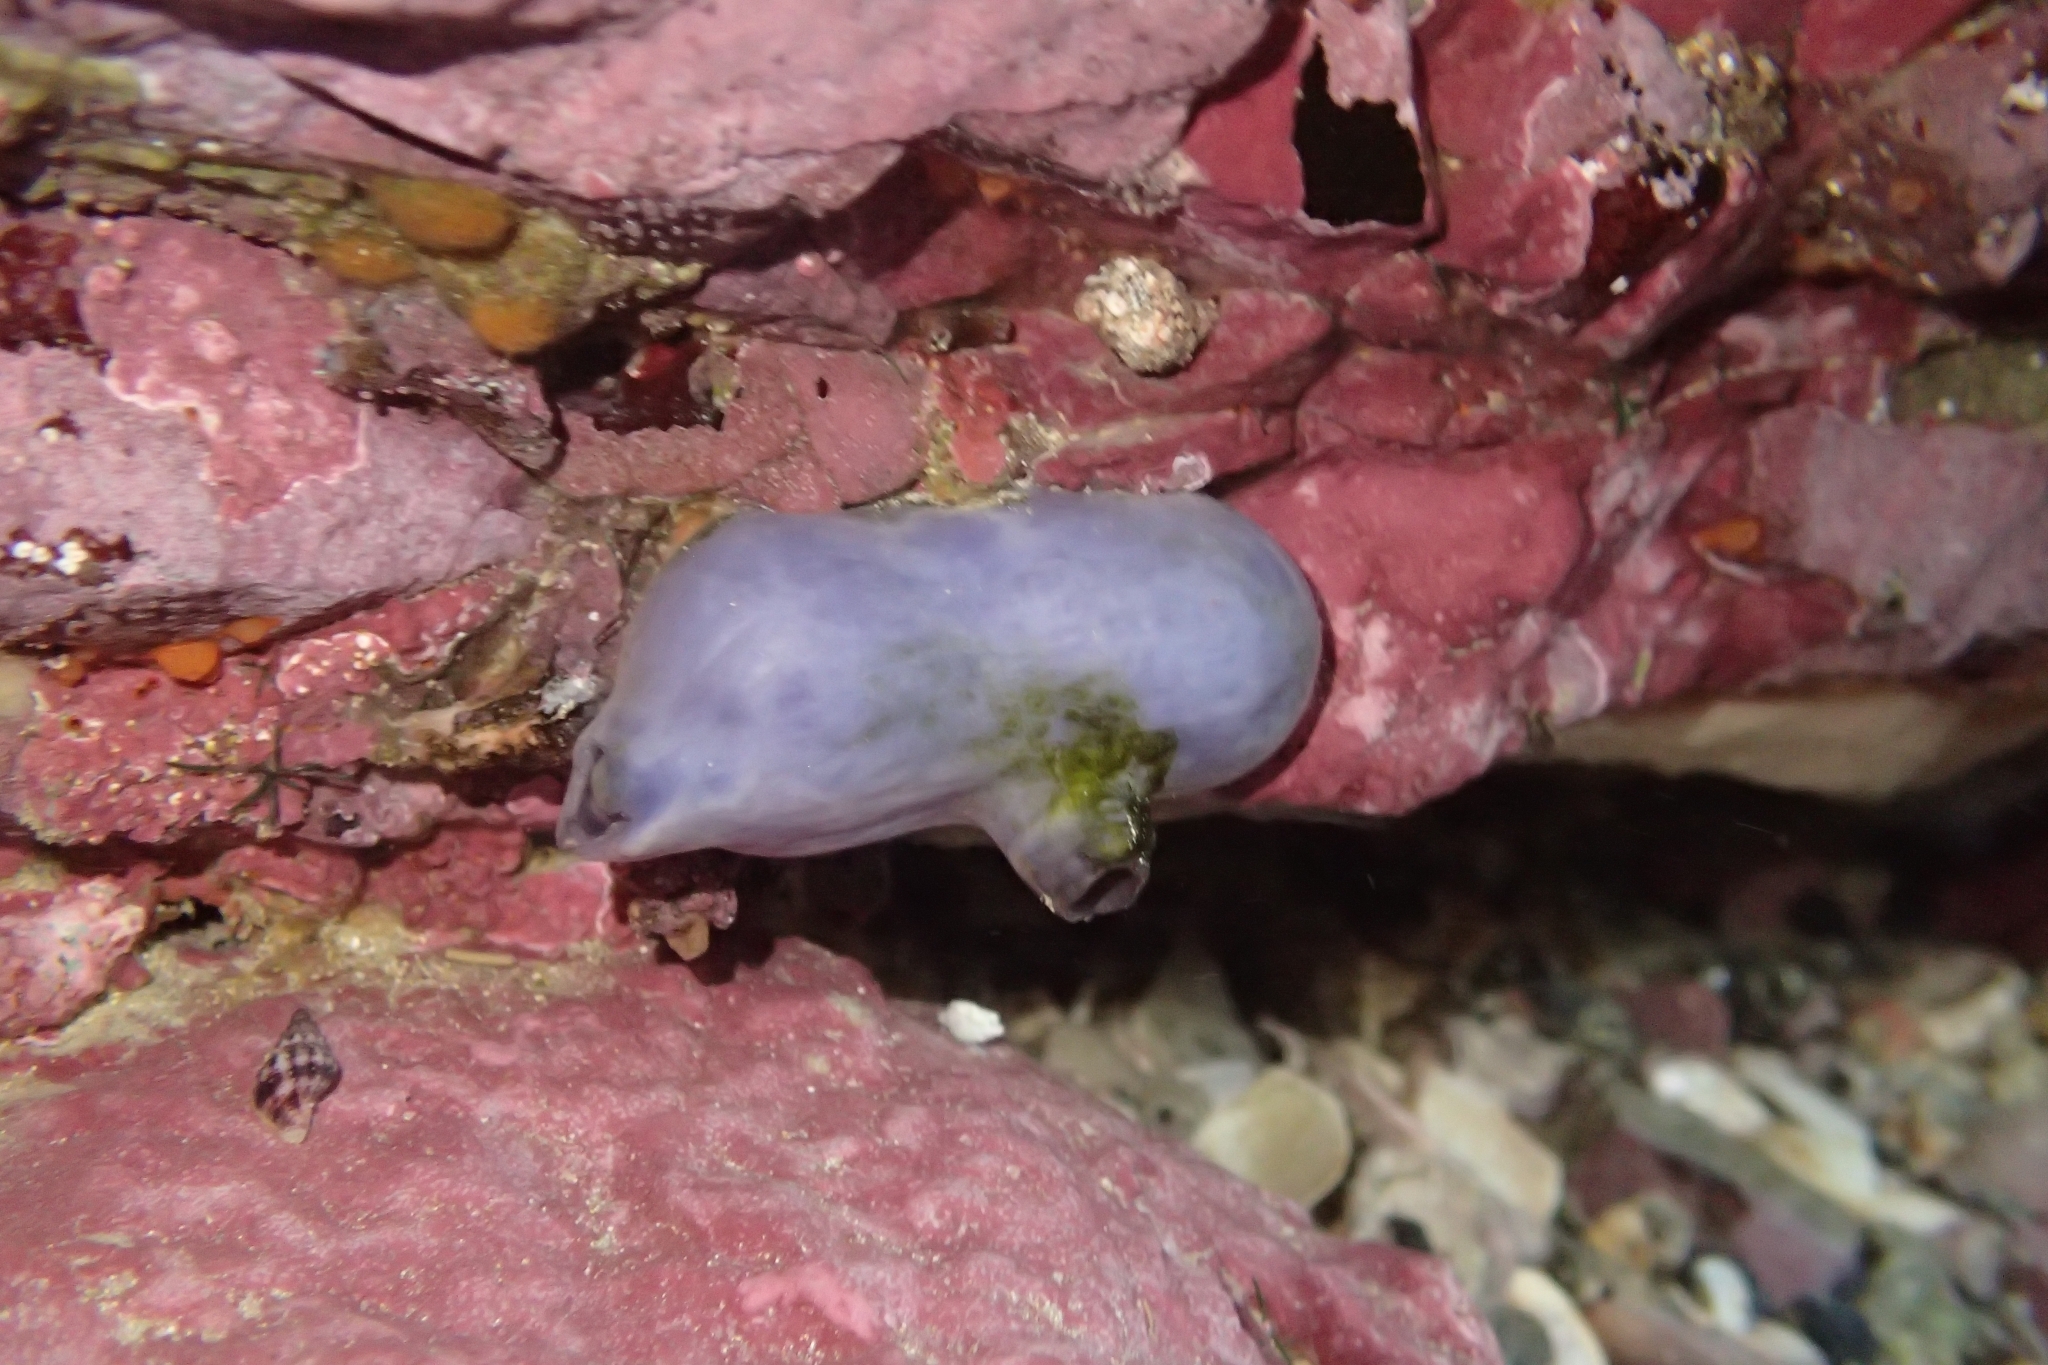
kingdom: Animalia
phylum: Chordata
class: Ascidiacea
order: Stolidobranchia
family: Styelidae
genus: Asterocarpa
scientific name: Asterocarpa coerulea
